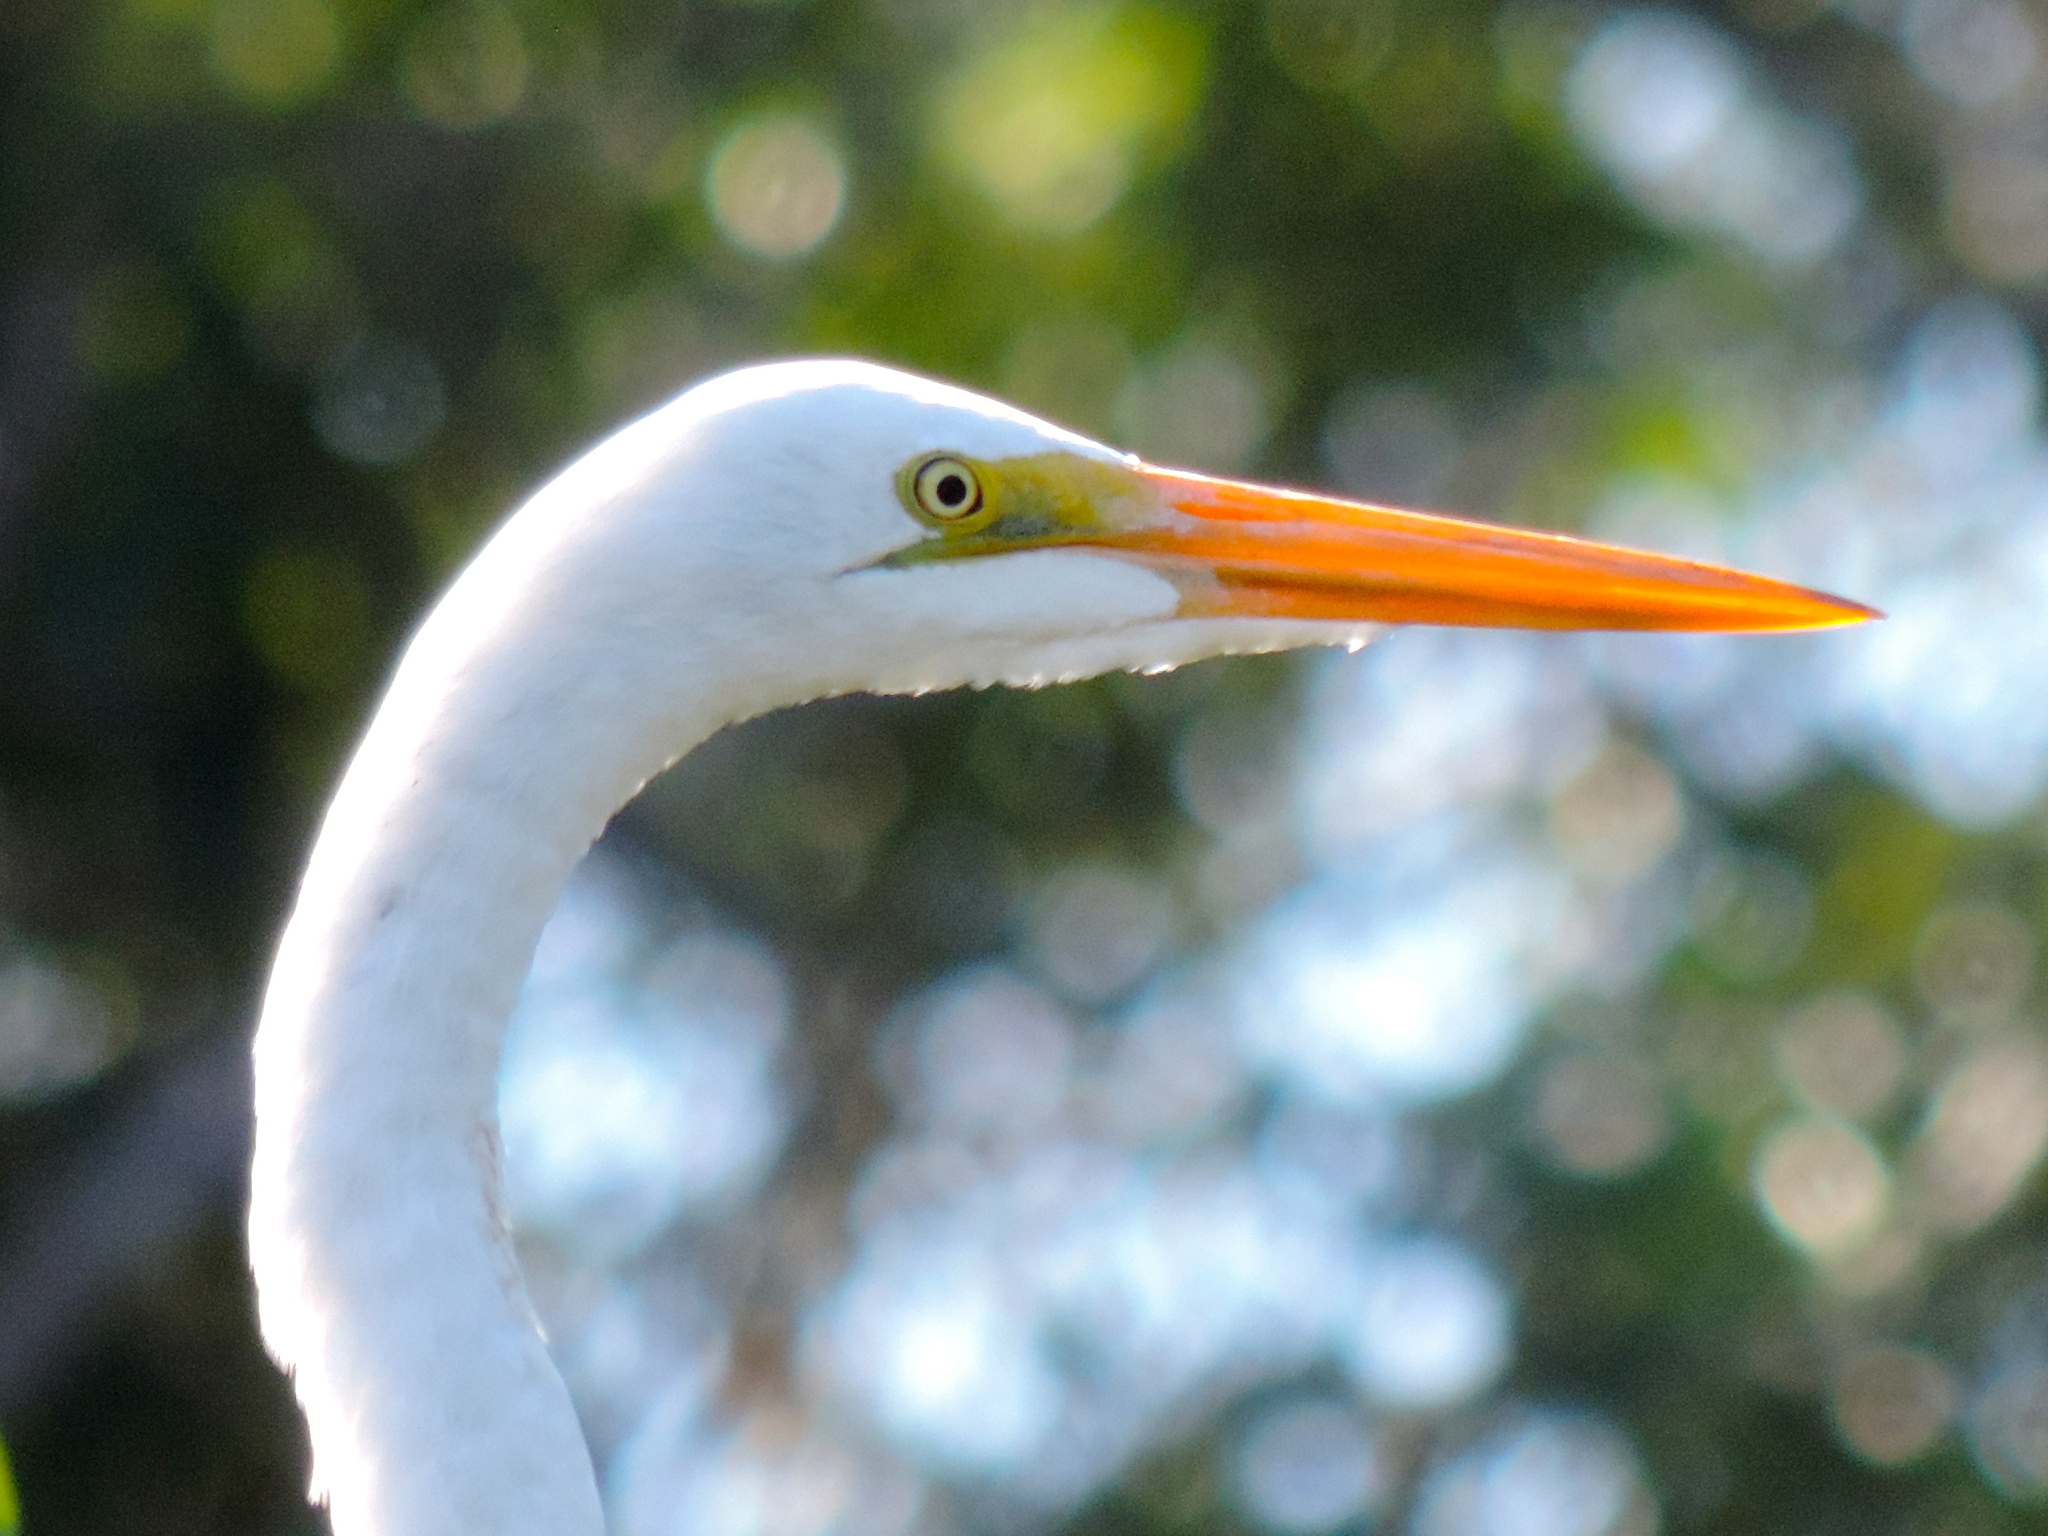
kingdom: Animalia
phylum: Chordata
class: Aves
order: Pelecaniformes
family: Ardeidae
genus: Ardea
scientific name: Ardea alba
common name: Great egret
